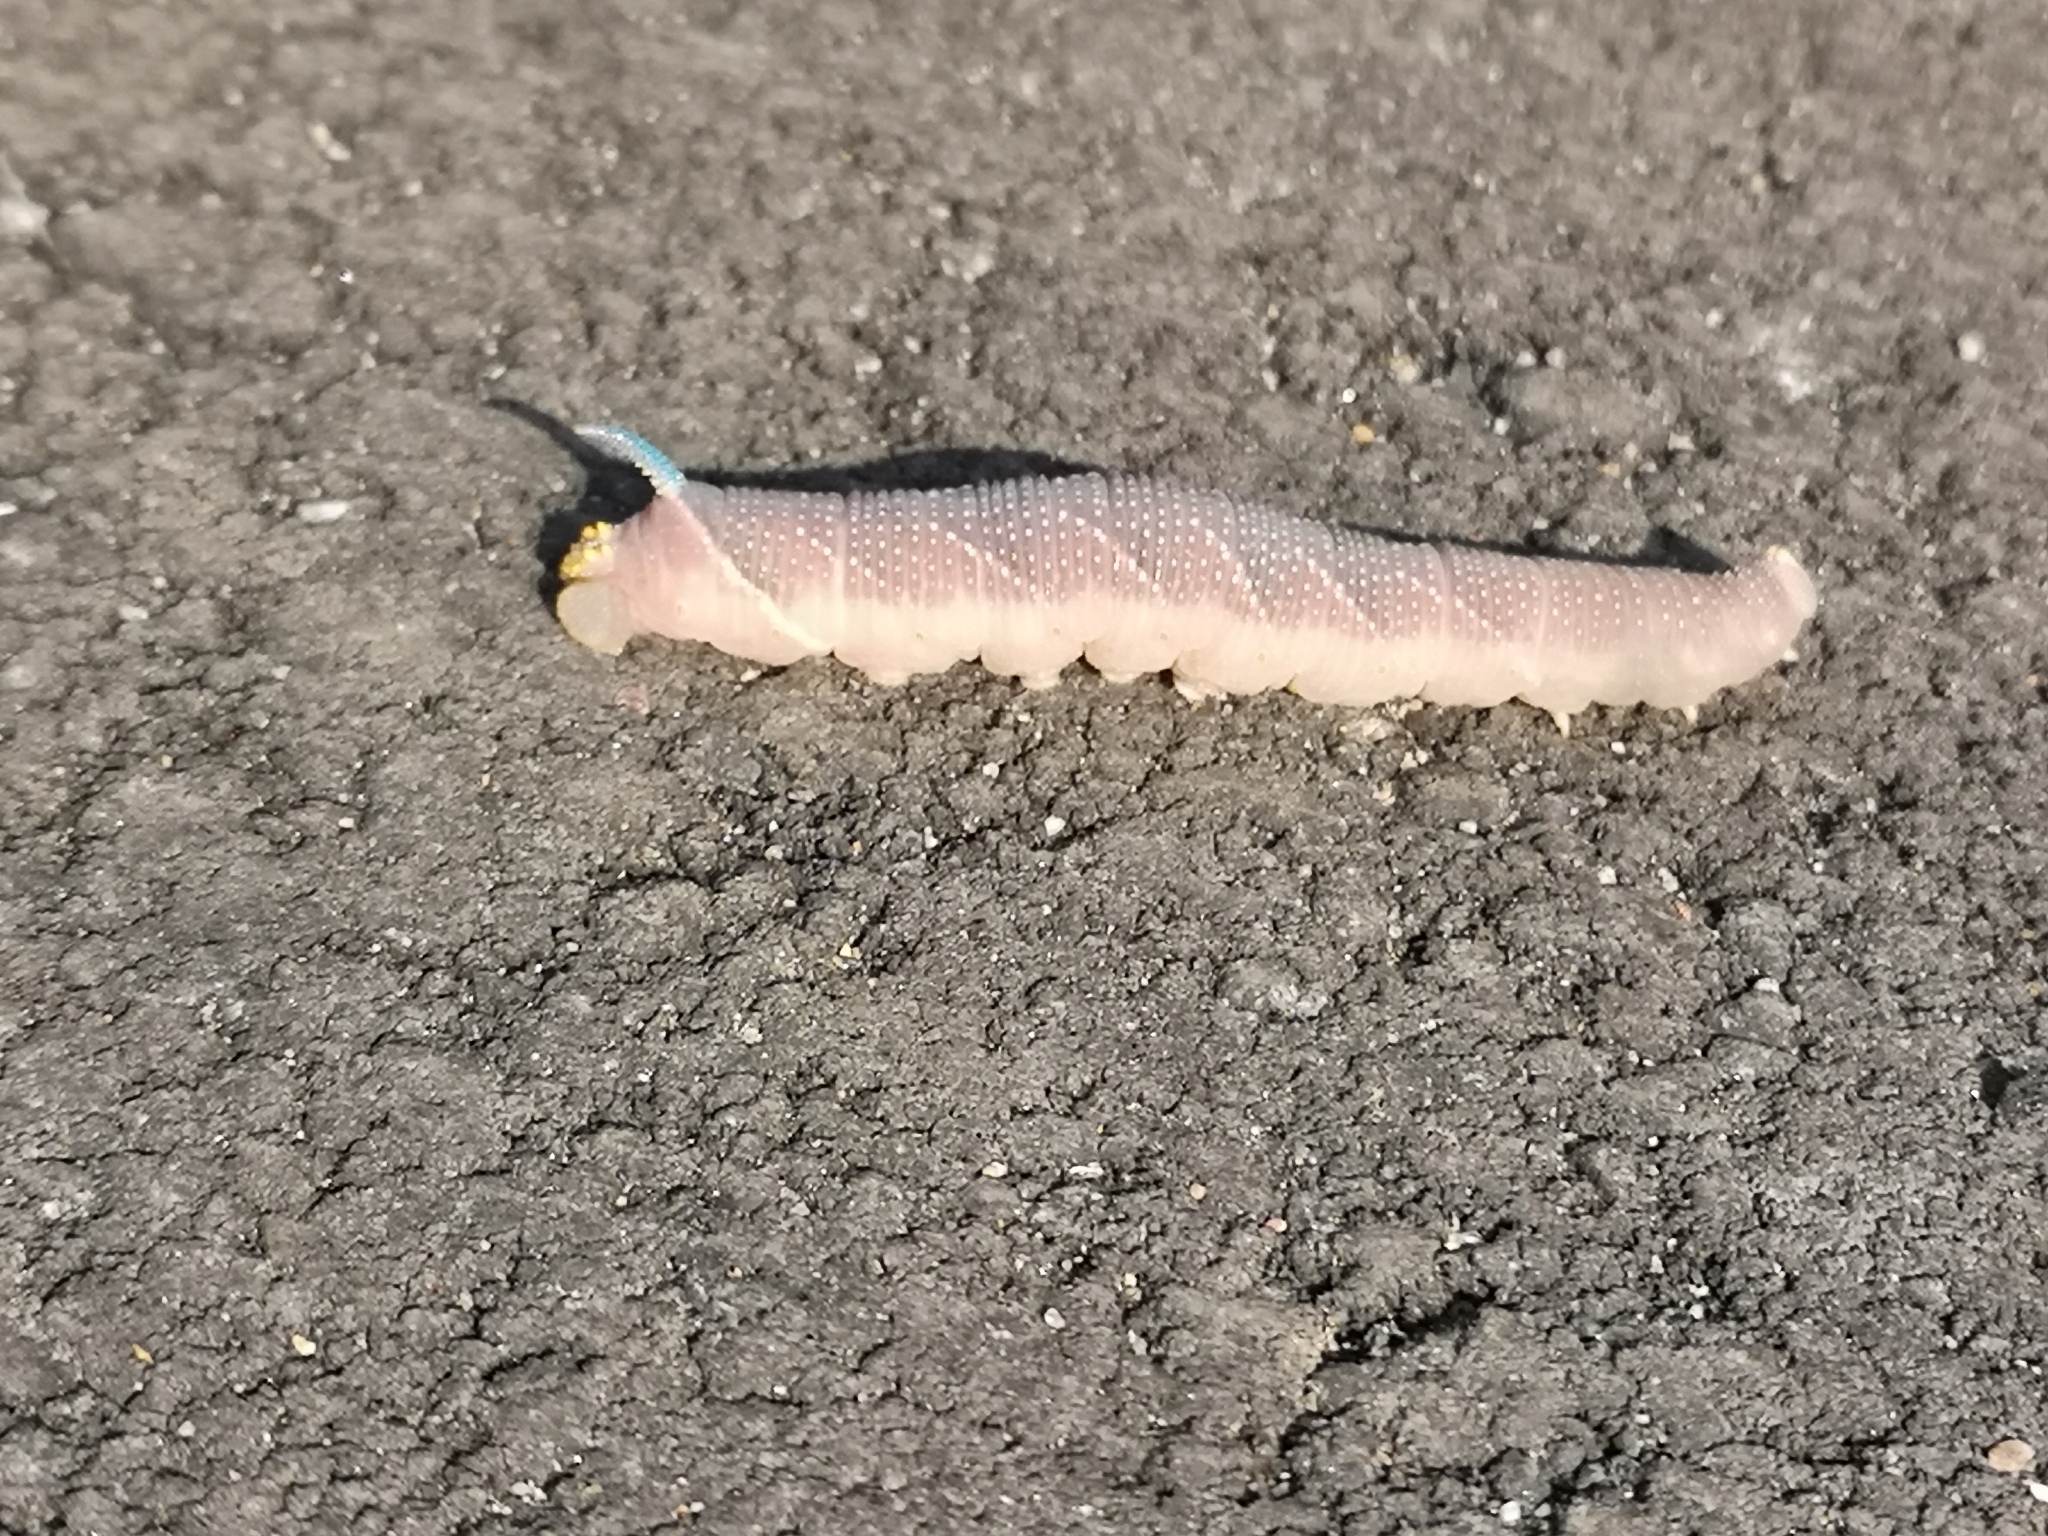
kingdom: Animalia
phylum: Arthropoda
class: Insecta
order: Lepidoptera
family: Sphingidae
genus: Mimas
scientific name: Mimas tiliae
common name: Lime hawk-moth
